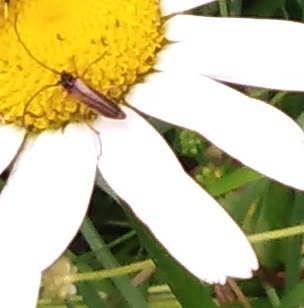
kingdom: Animalia
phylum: Arthropoda
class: Insecta
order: Coleoptera
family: Cerambycidae
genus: Alosterna
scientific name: Alosterna tabacicolor
